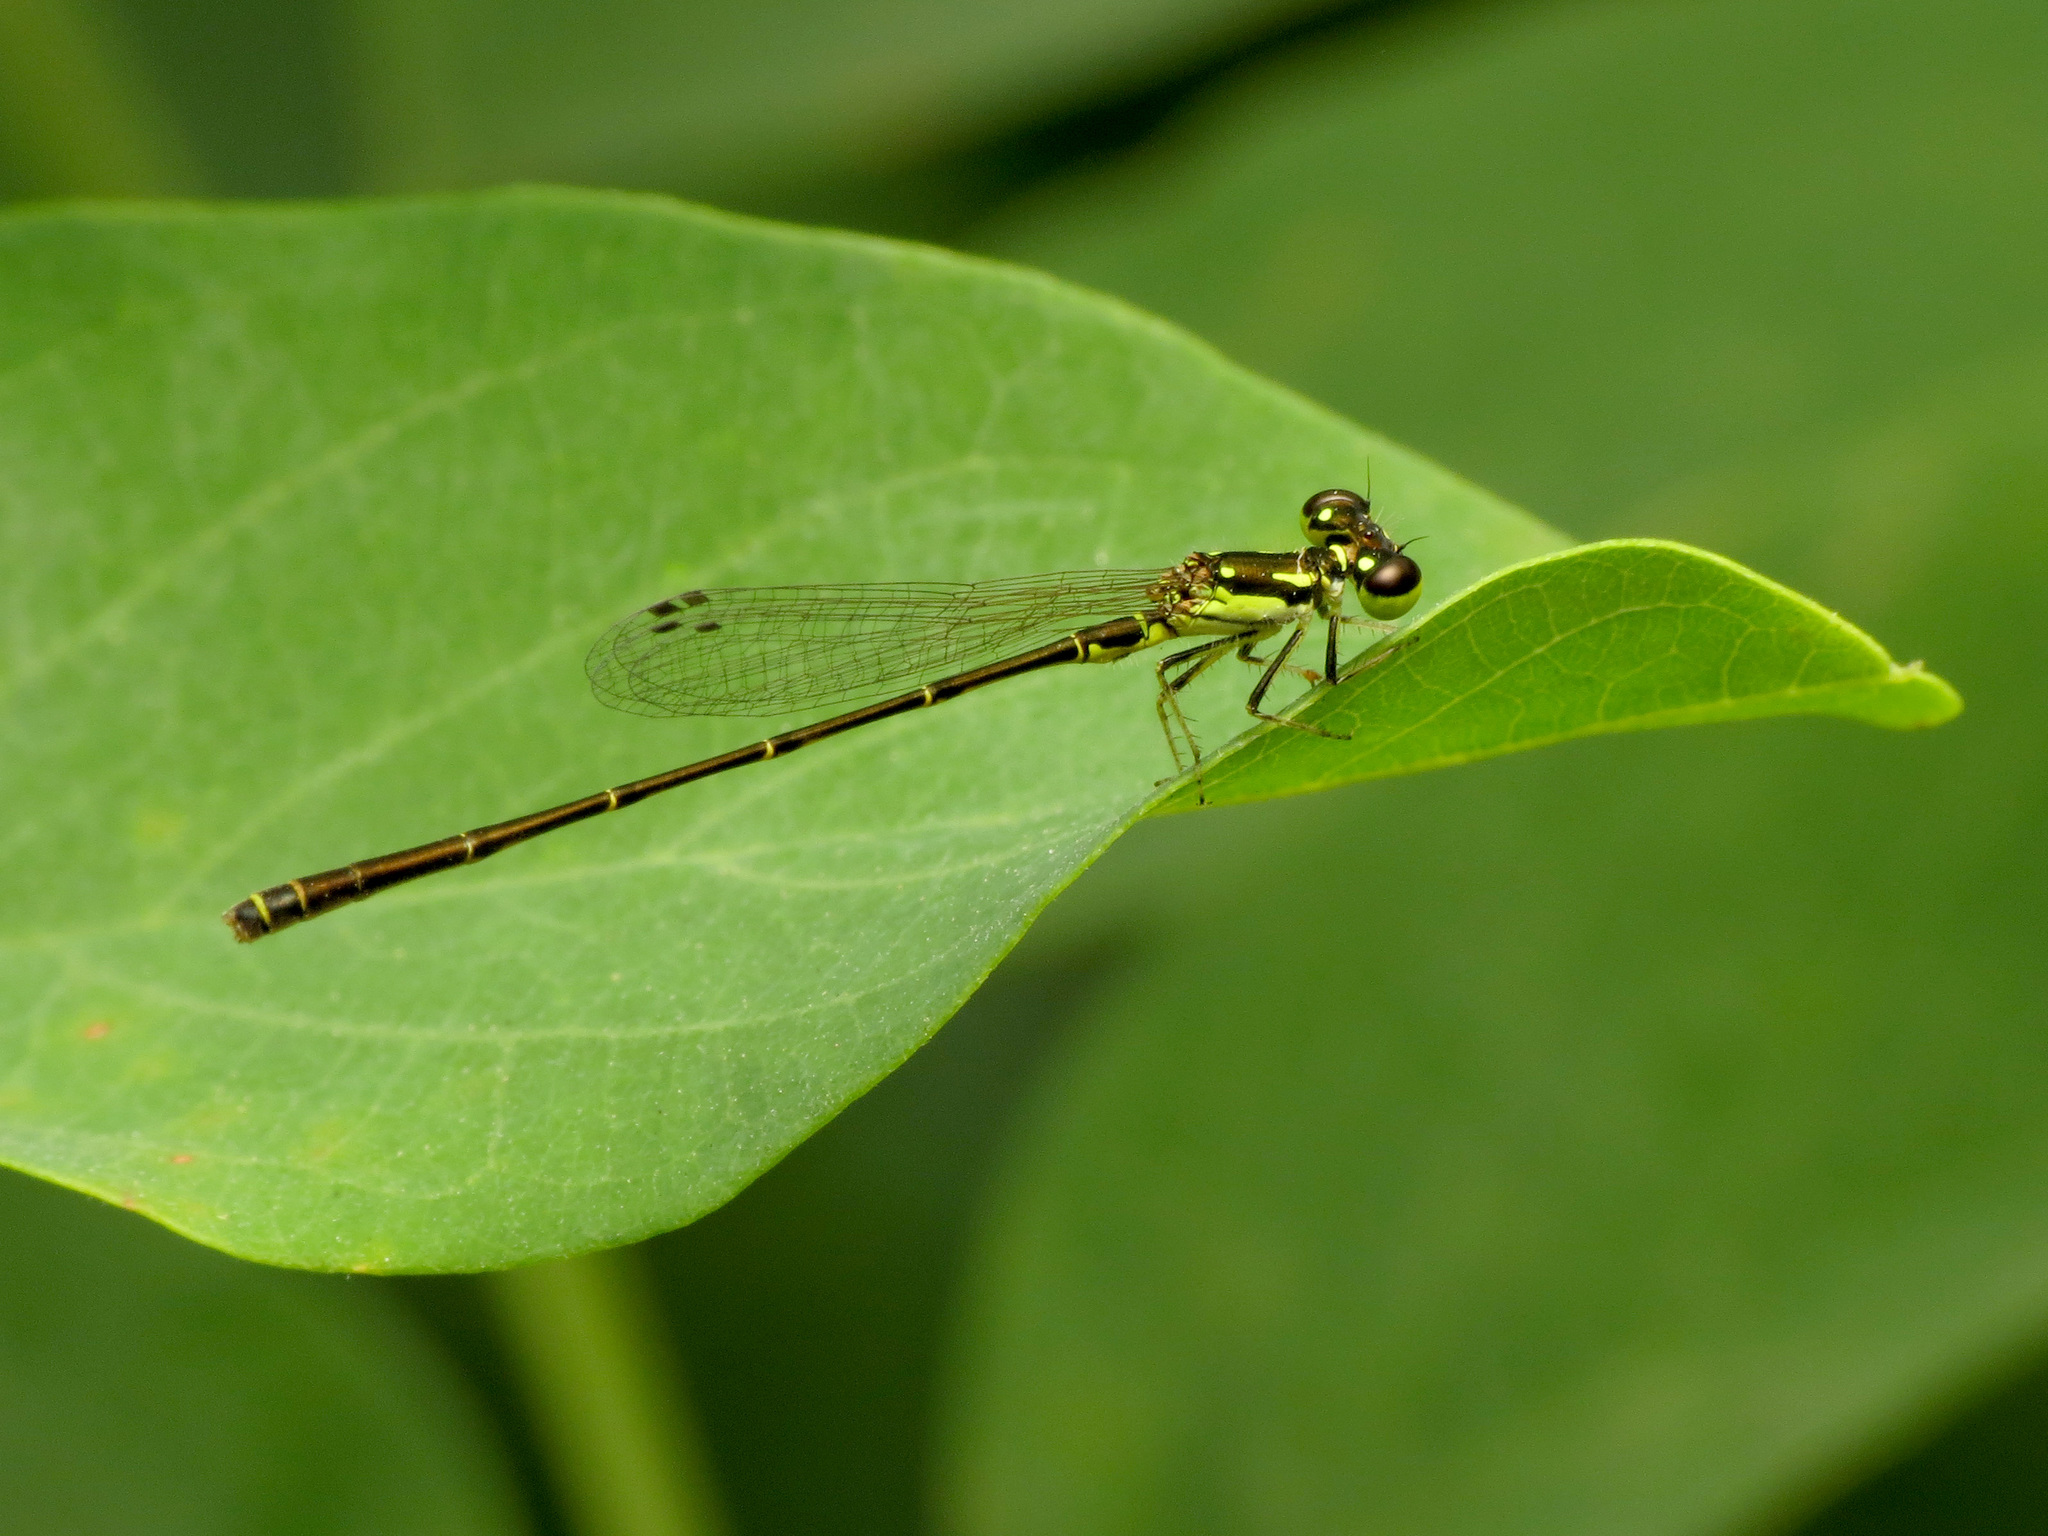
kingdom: Animalia
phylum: Arthropoda
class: Insecta
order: Odonata
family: Coenagrionidae
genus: Ischnura
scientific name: Ischnura posita
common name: Fragile forktail
